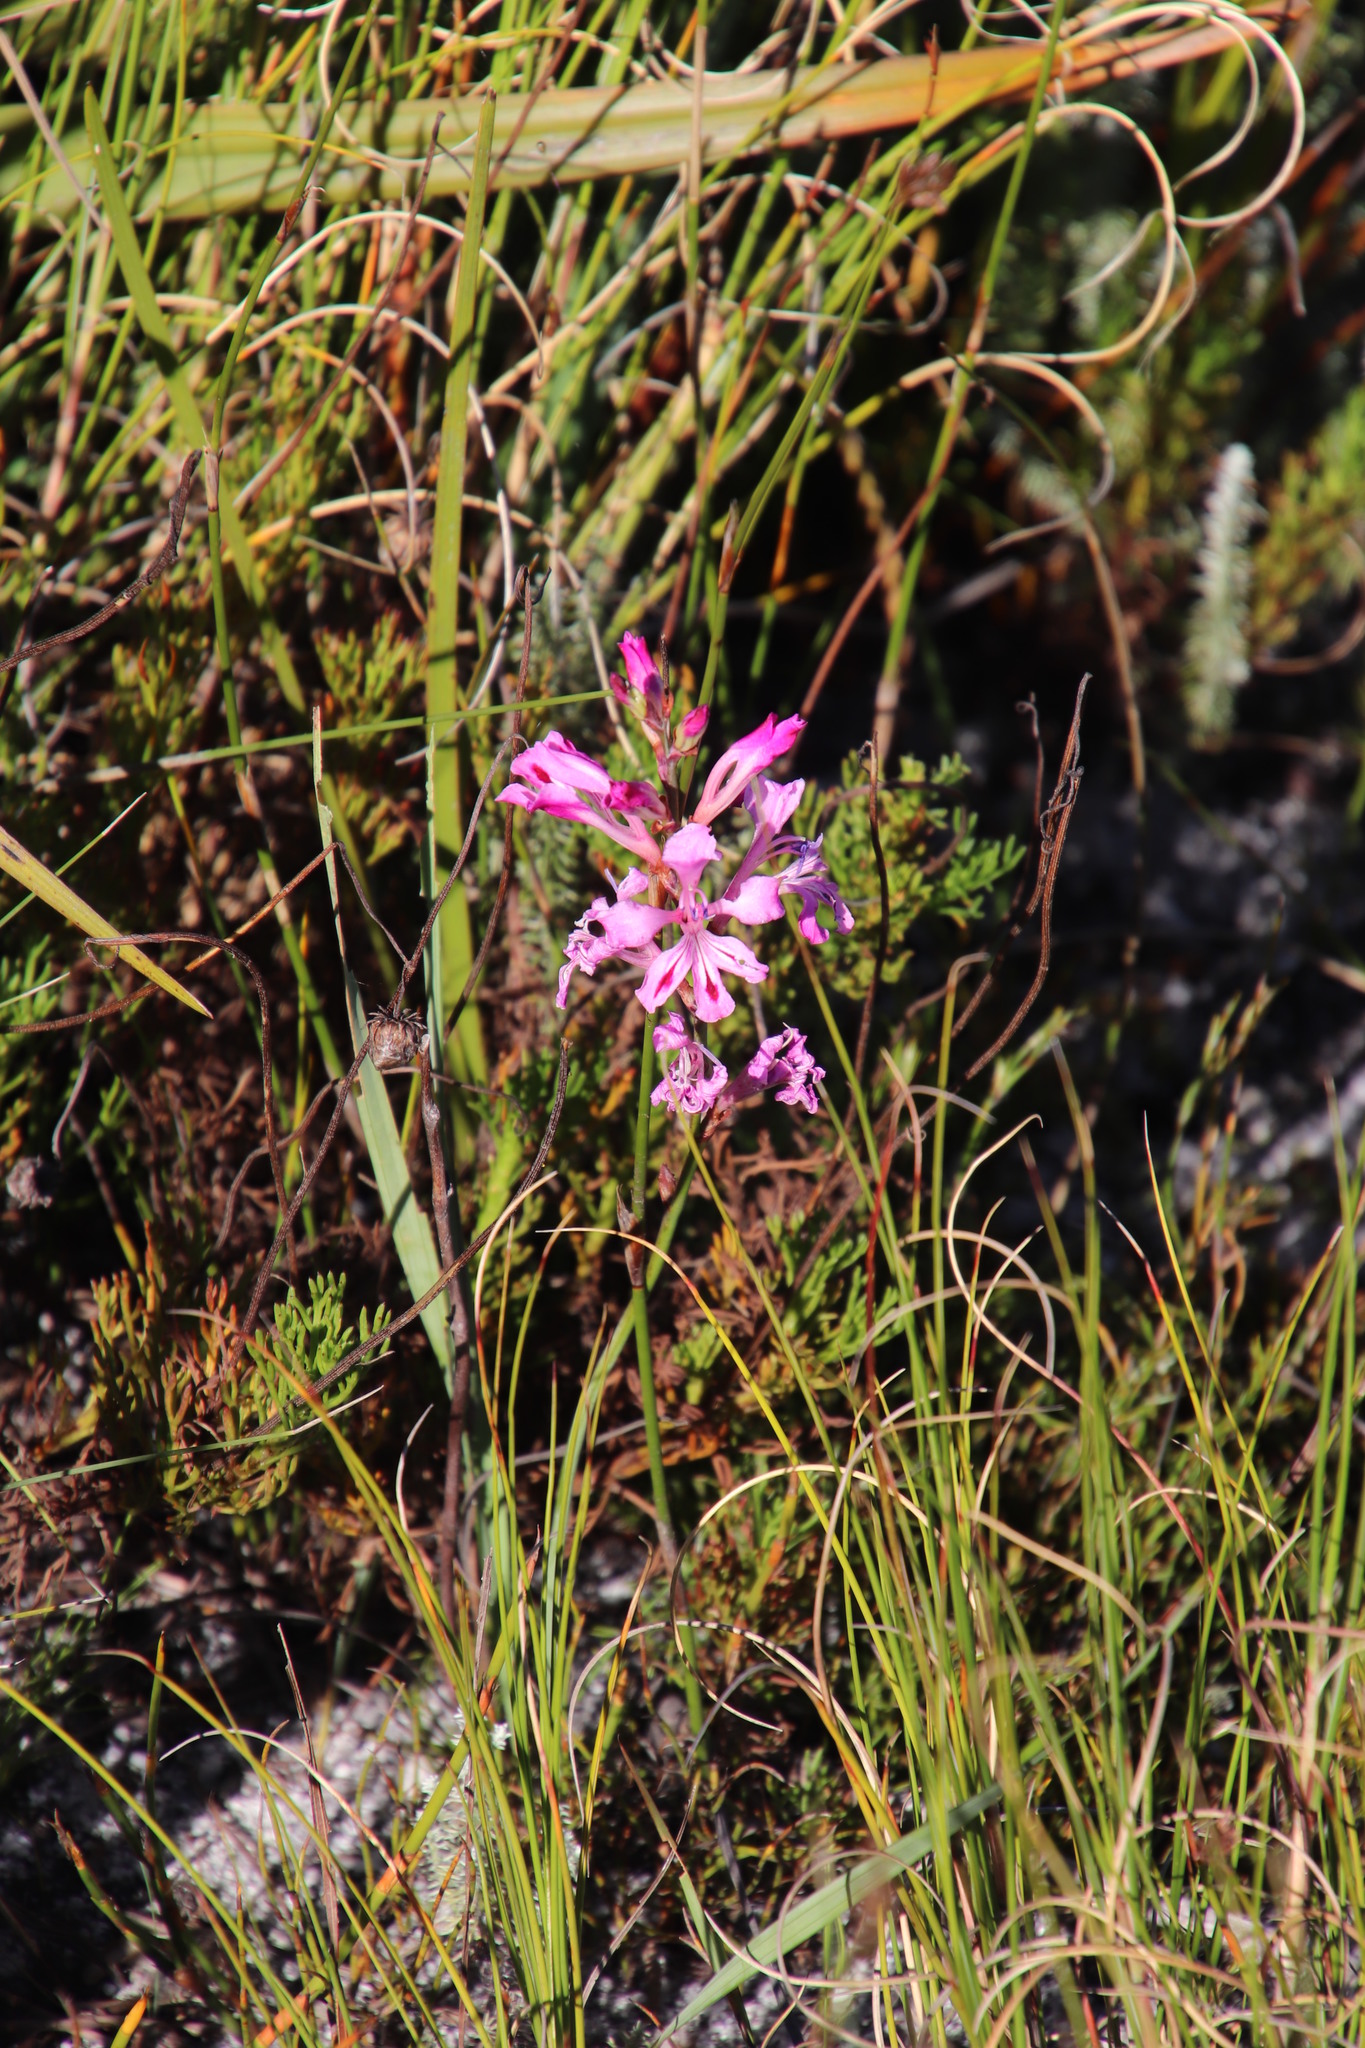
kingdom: Plantae
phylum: Tracheophyta
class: Liliopsida
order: Asparagales
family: Iridaceae
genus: Tritoniopsis
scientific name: Tritoniopsis lata
